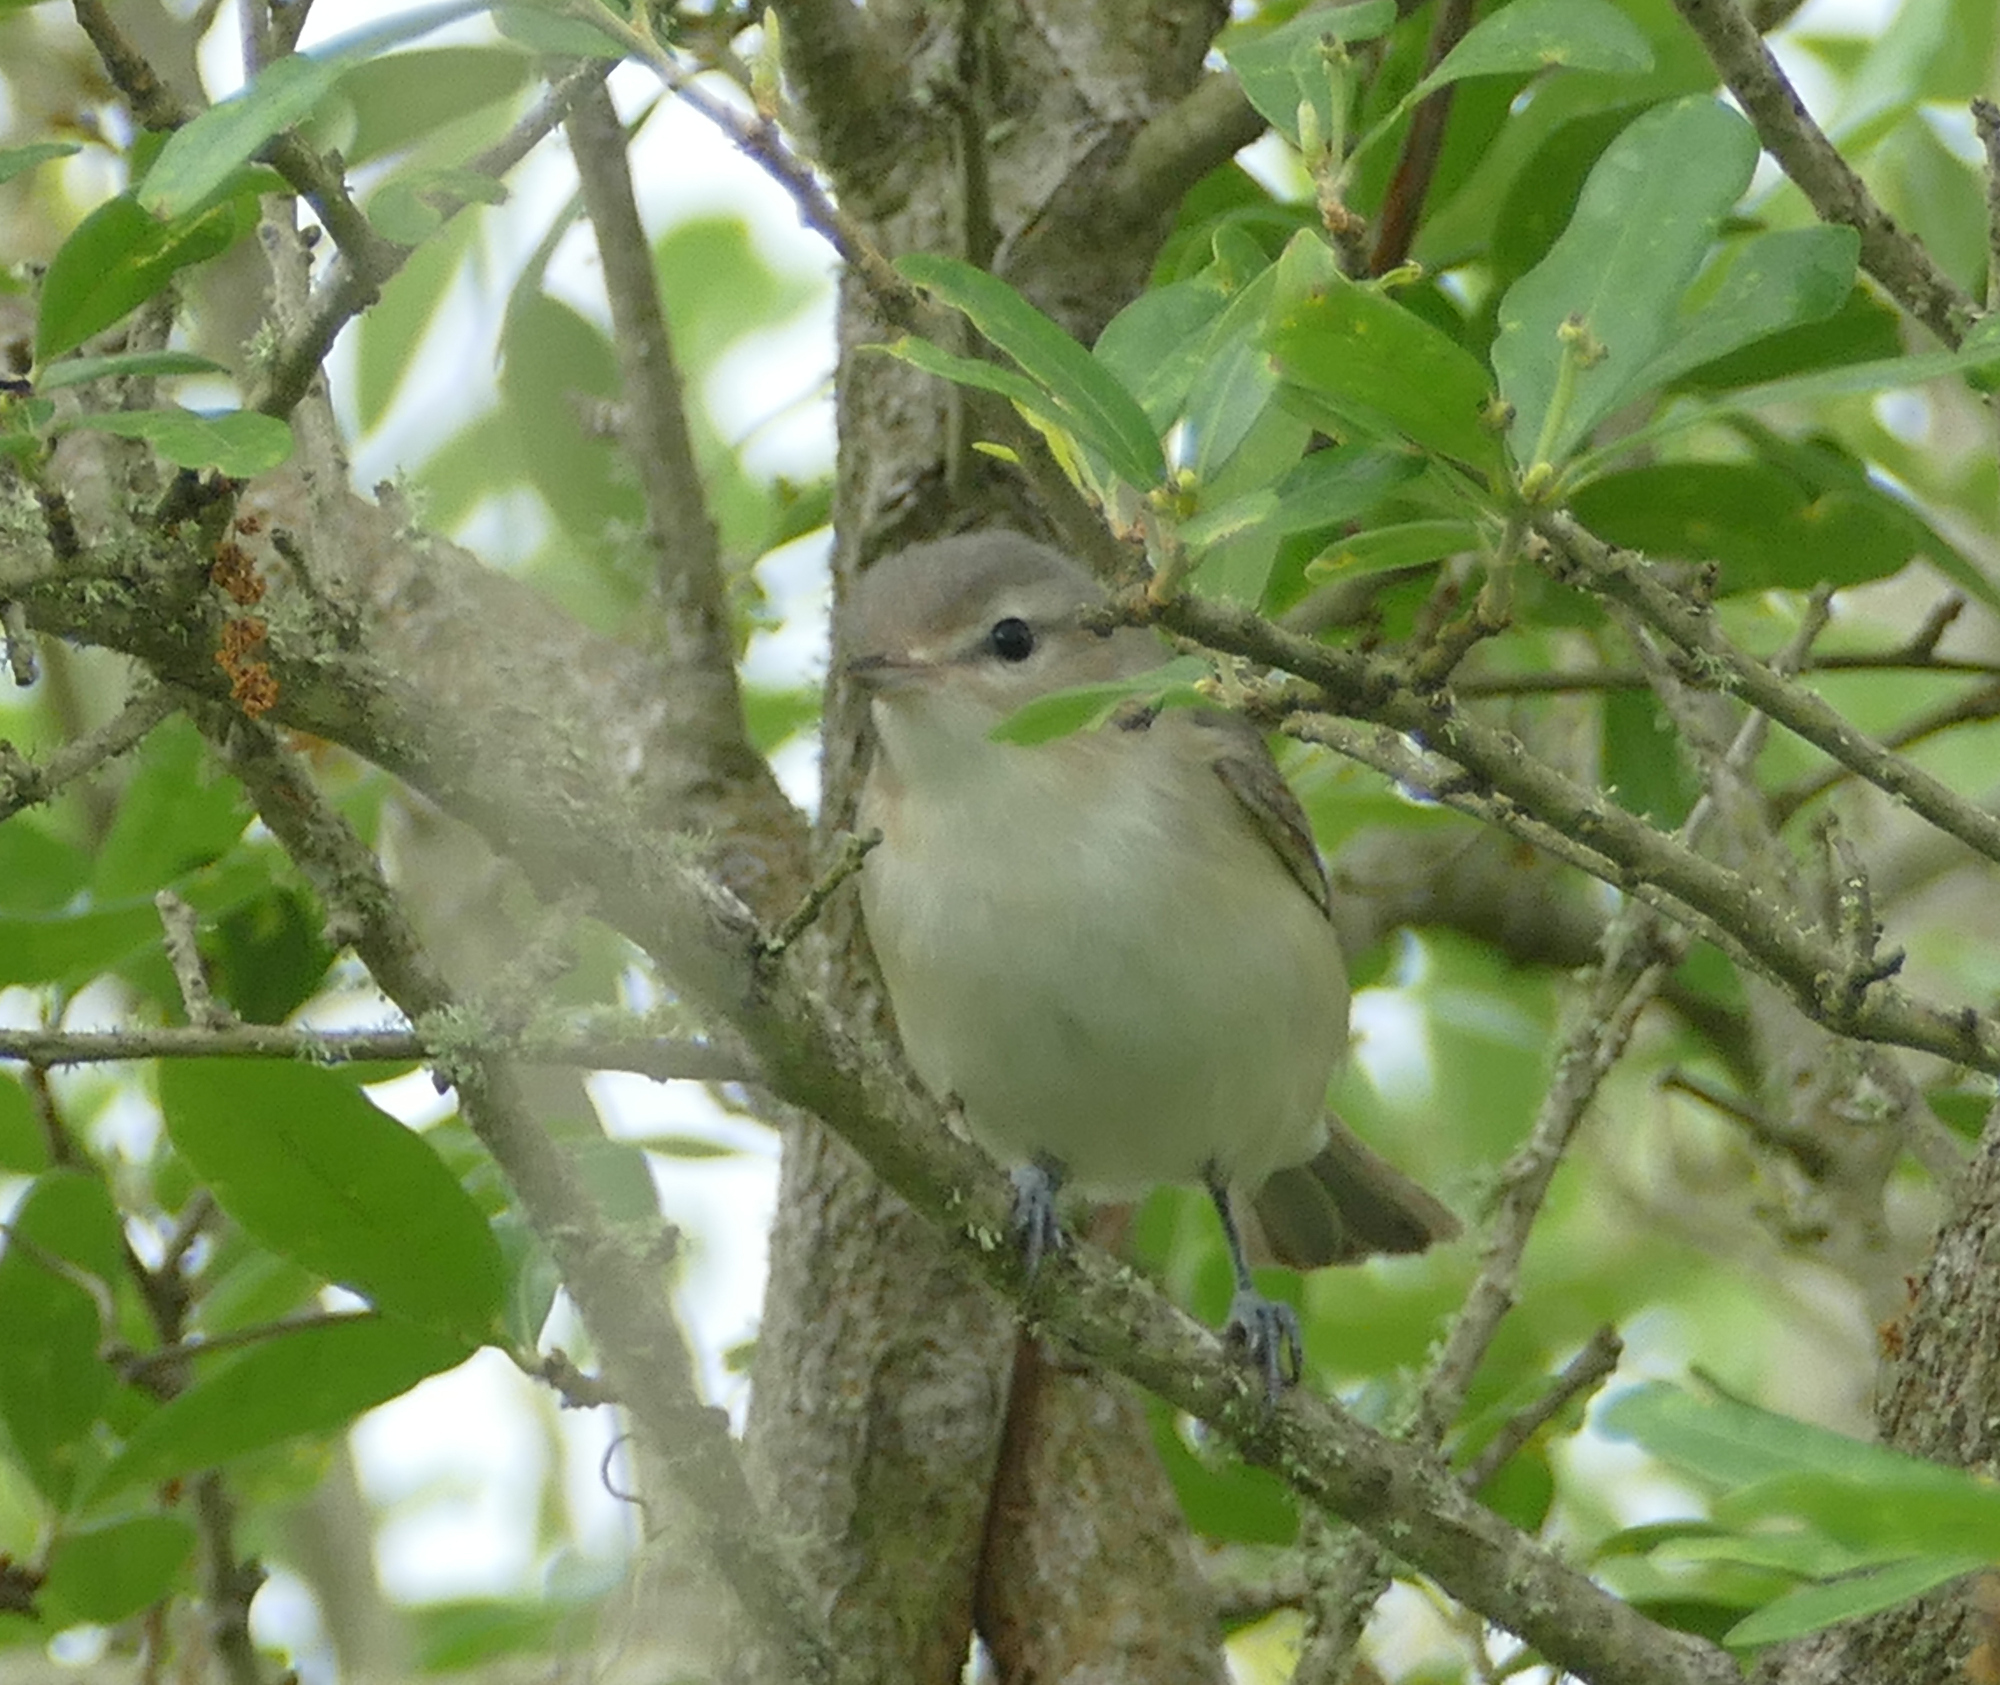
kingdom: Animalia
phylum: Chordata
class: Aves
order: Passeriformes
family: Vireonidae
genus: Vireo
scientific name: Vireo gilvus
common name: Warbling vireo
